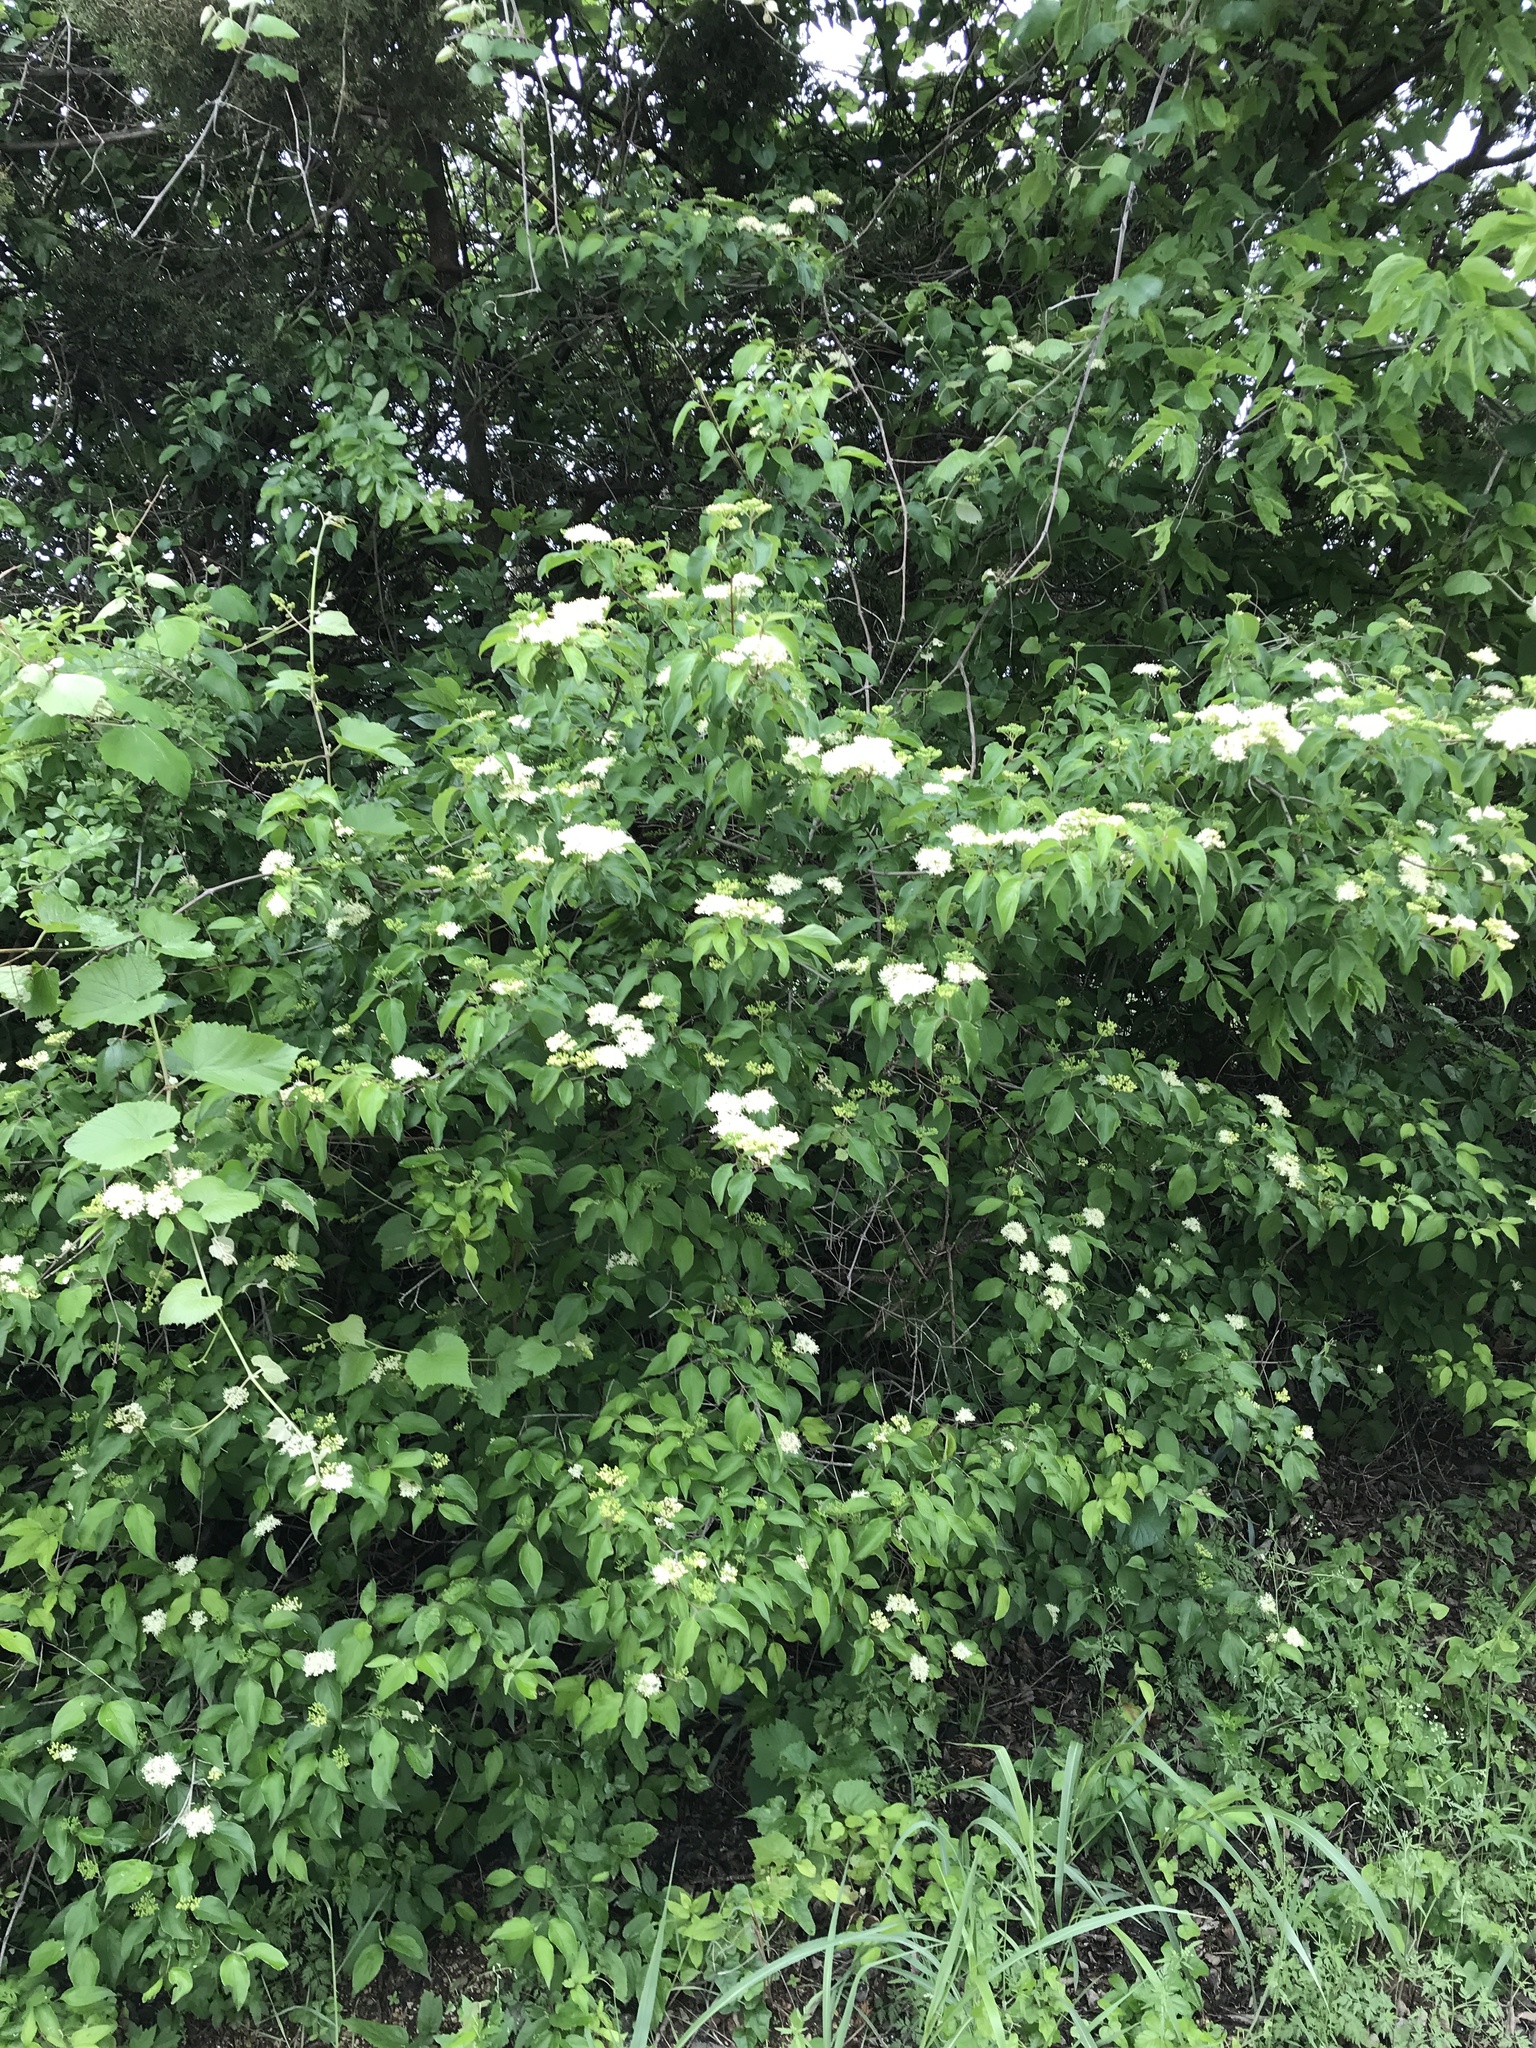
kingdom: Plantae
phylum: Tracheophyta
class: Magnoliopsida
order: Cornales
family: Cornaceae
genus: Cornus
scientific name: Cornus drummondii
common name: Rough-leaf dogwood
